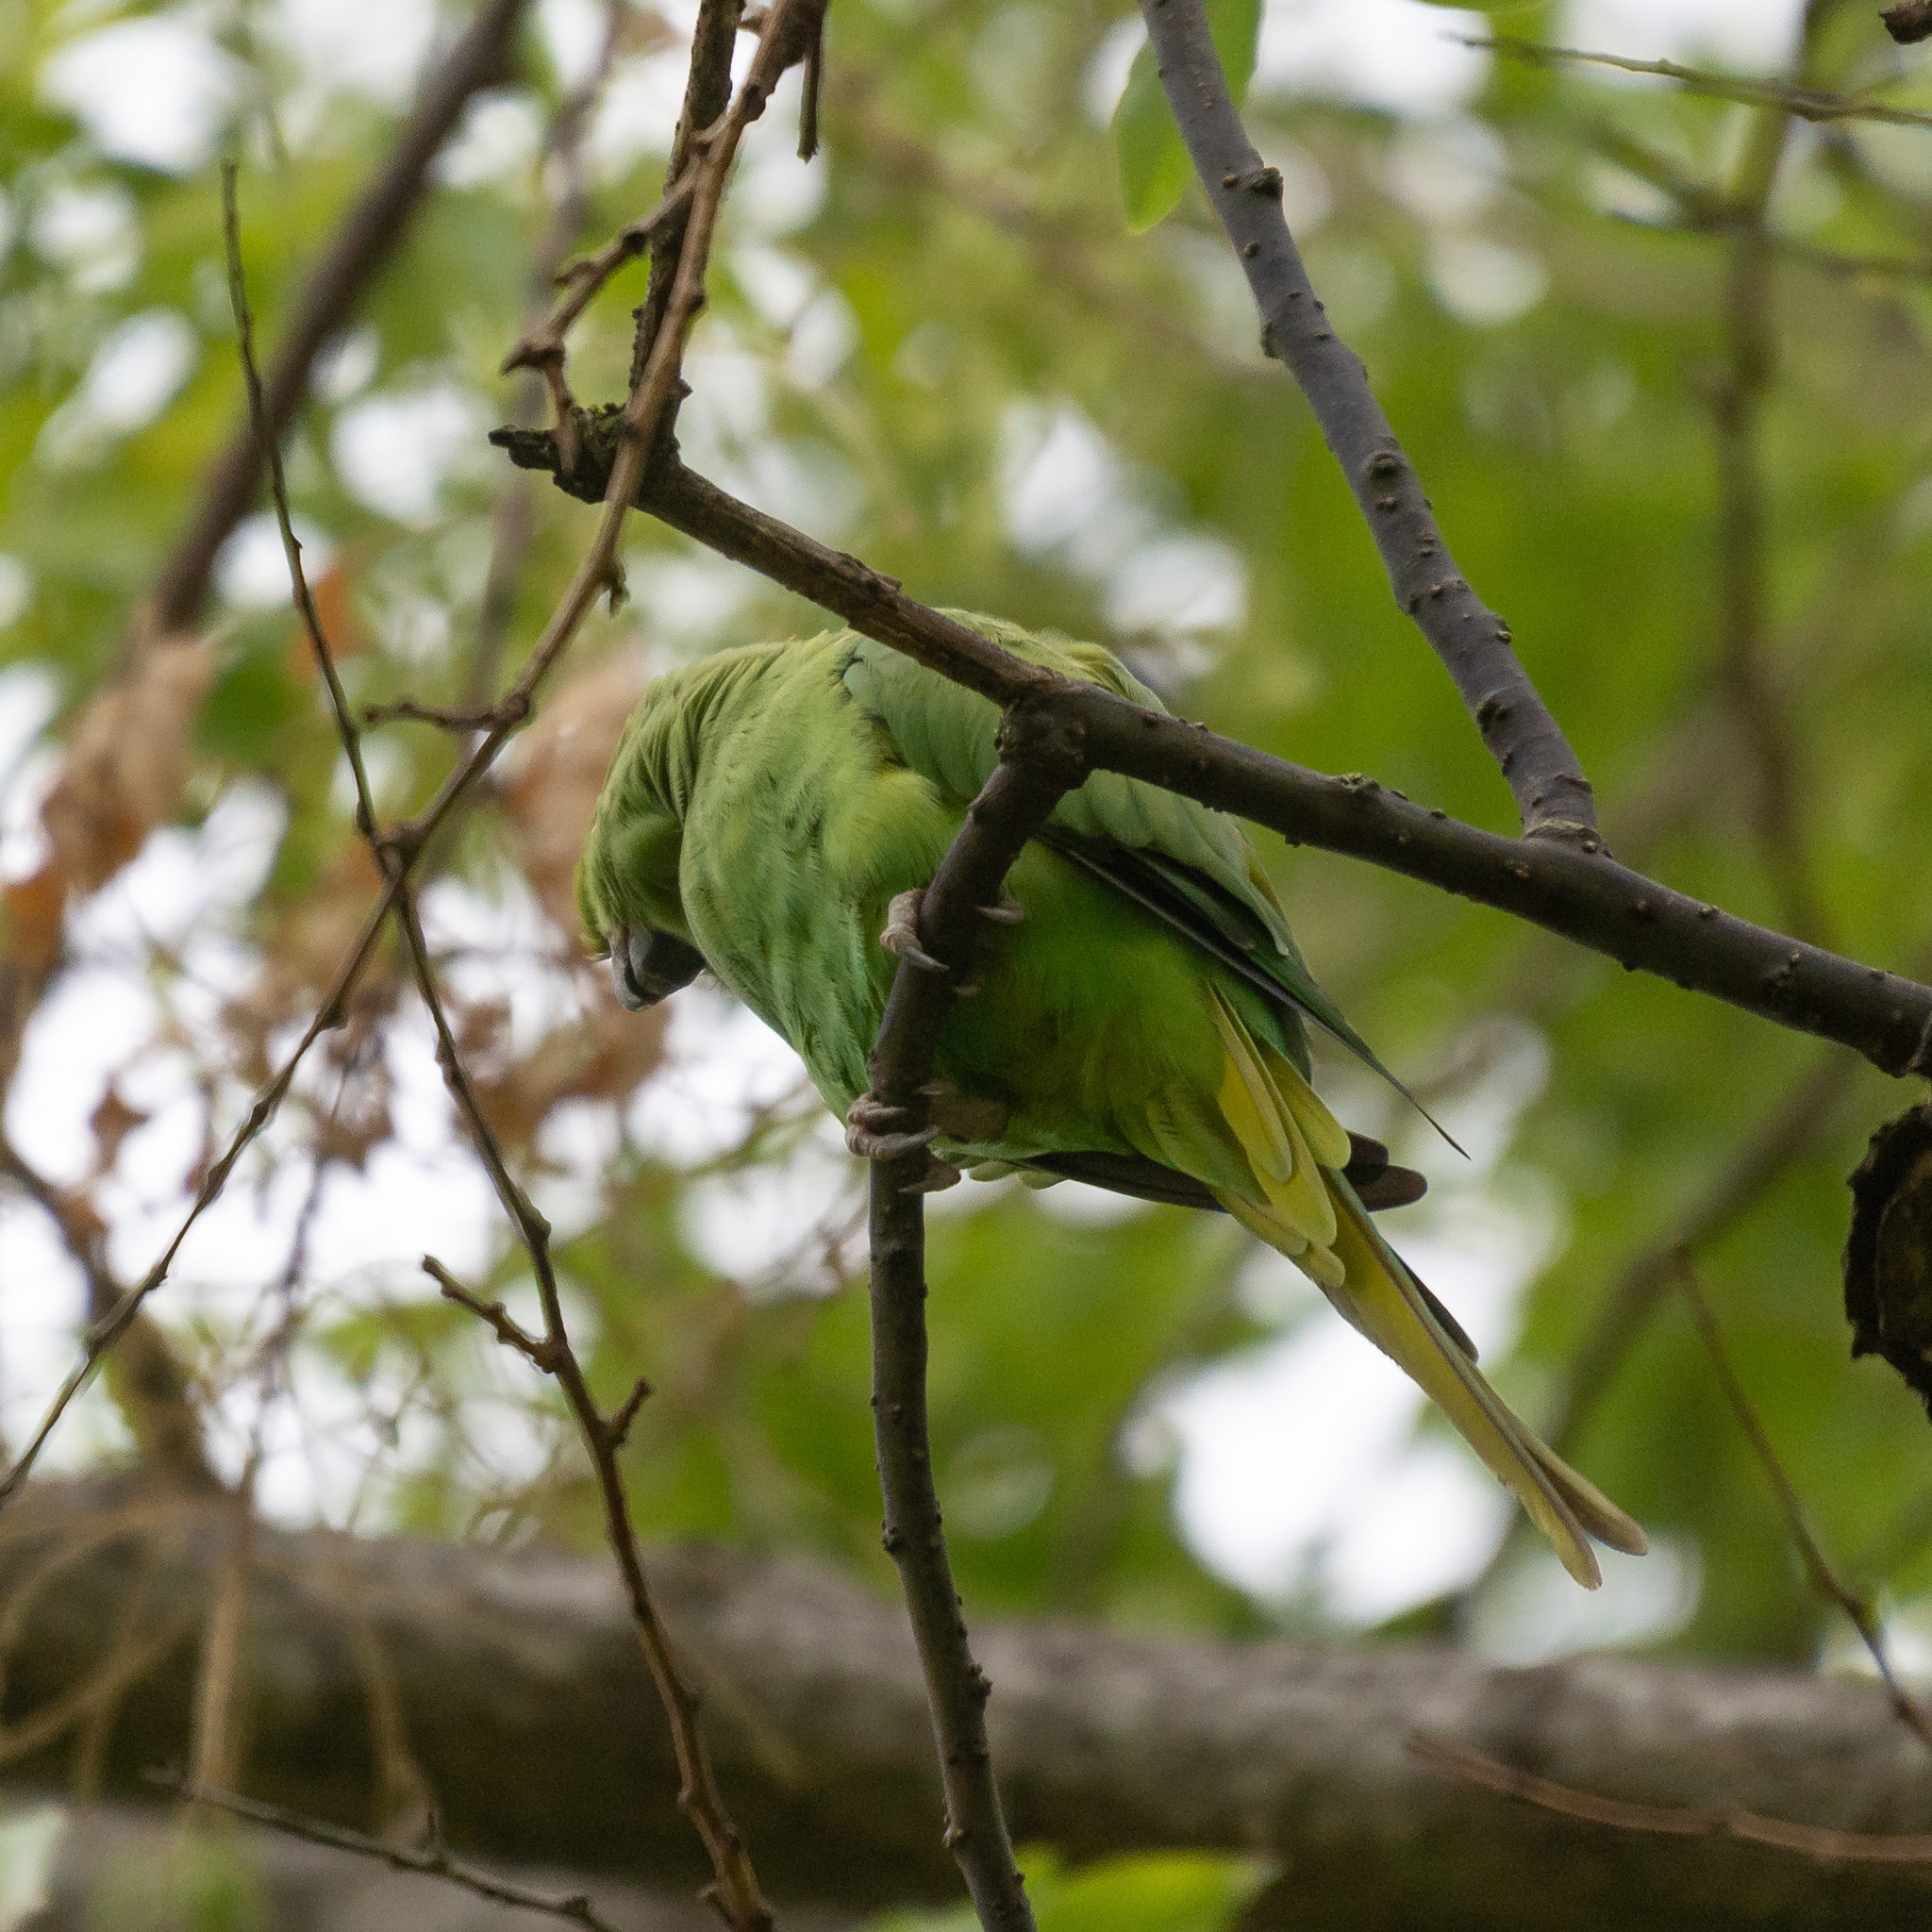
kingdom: Animalia
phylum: Chordata
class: Aves
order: Psittaciformes
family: Psittacidae
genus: Psittacula
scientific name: Psittacula krameri
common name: Rose-ringed parakeet
